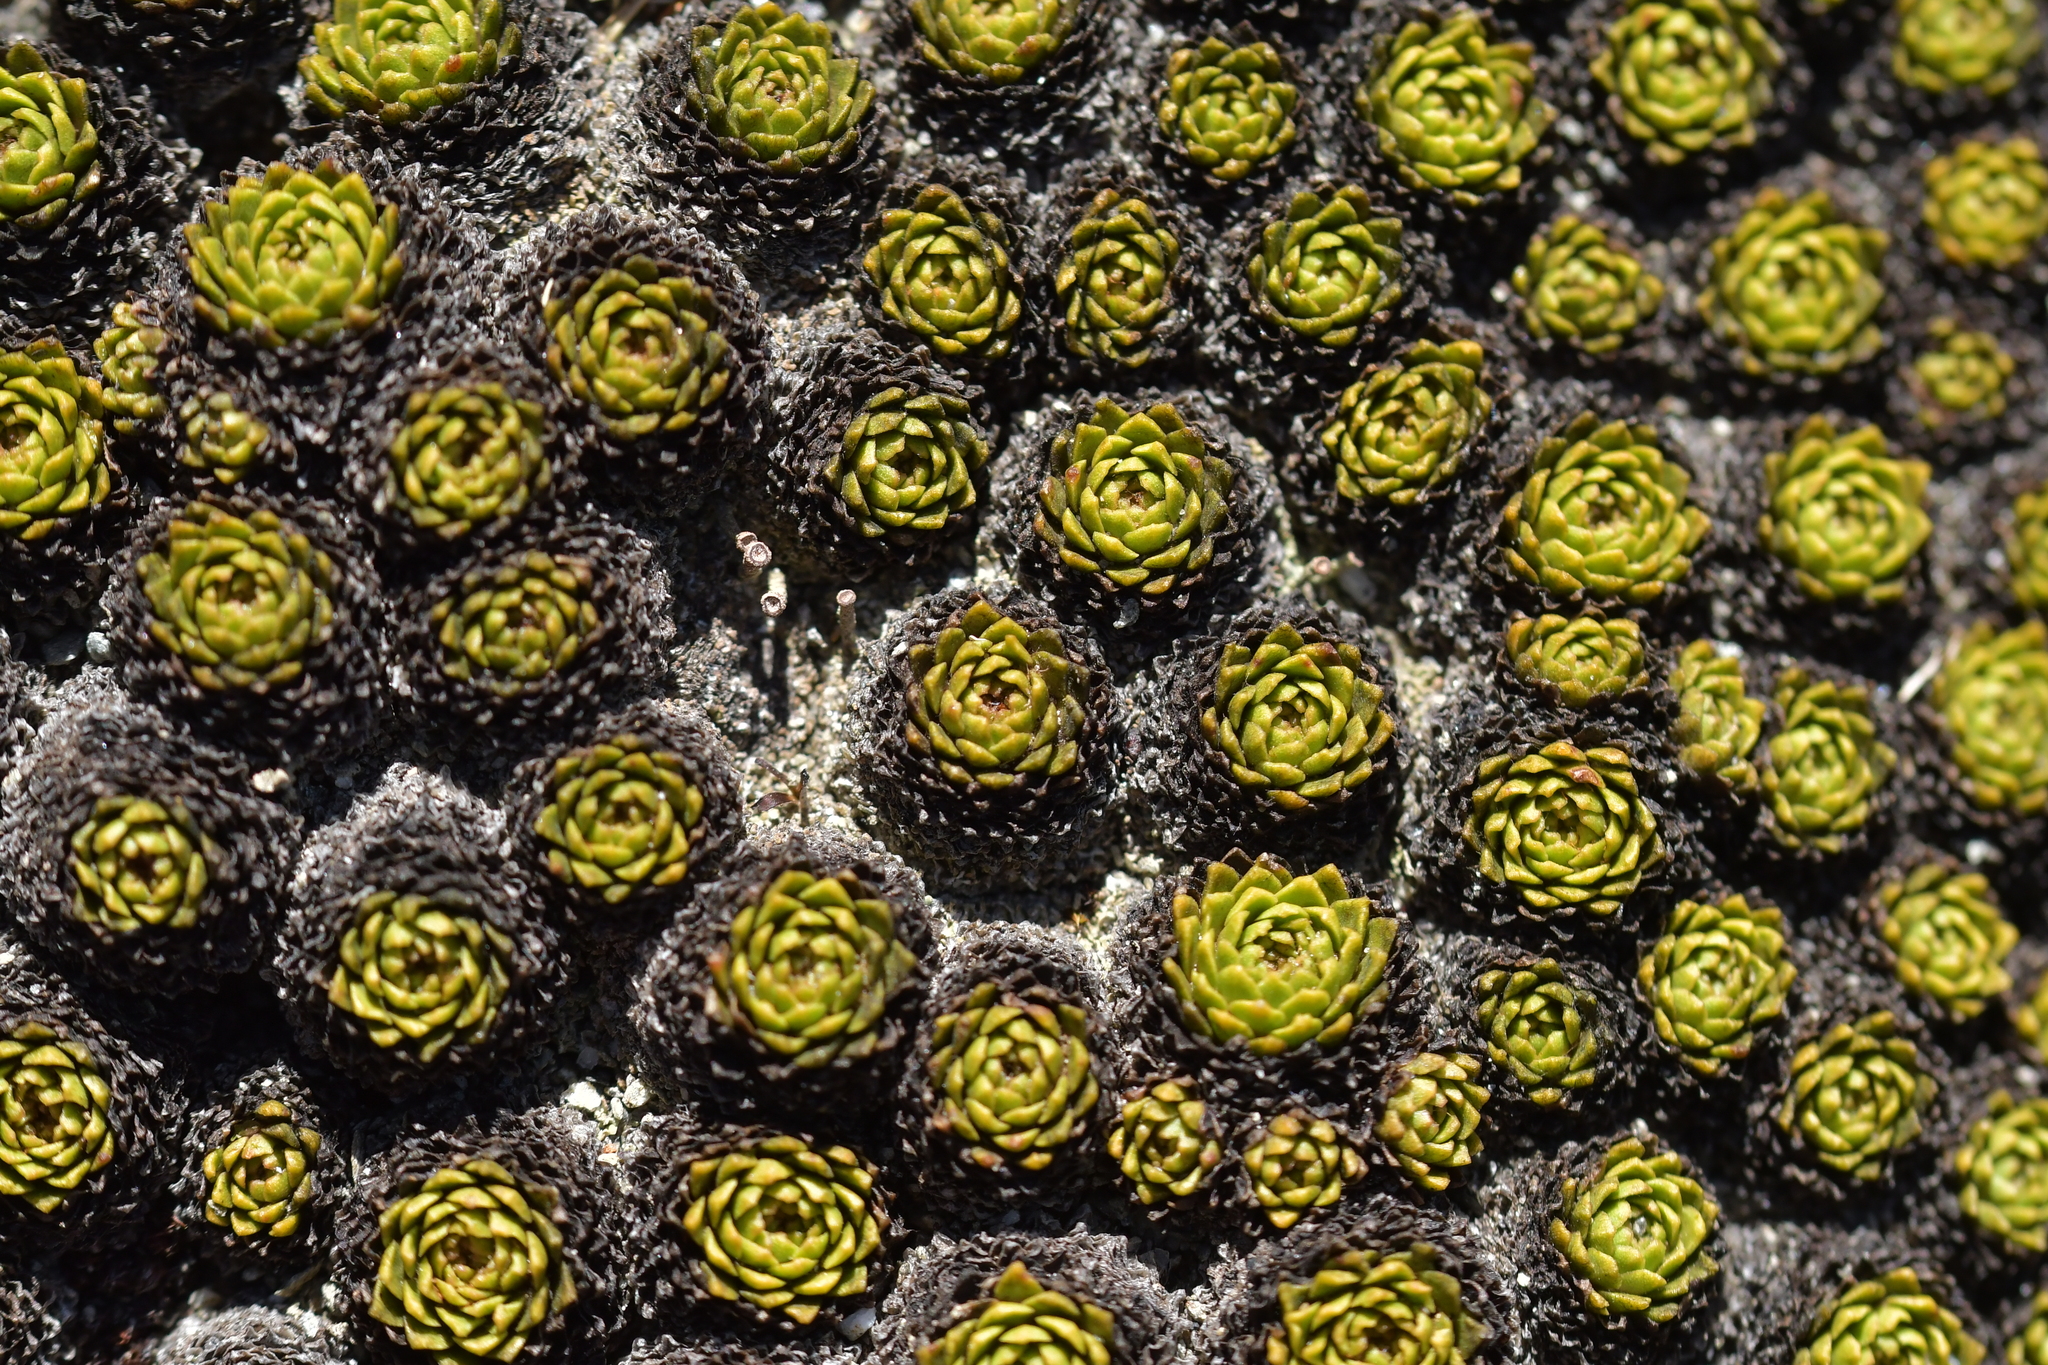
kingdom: Plantae
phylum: Tracheophyta
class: Magnoliopsida
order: Caryophyllales
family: Montiaceae
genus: Hectorella
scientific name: Hectorella caespitosa
